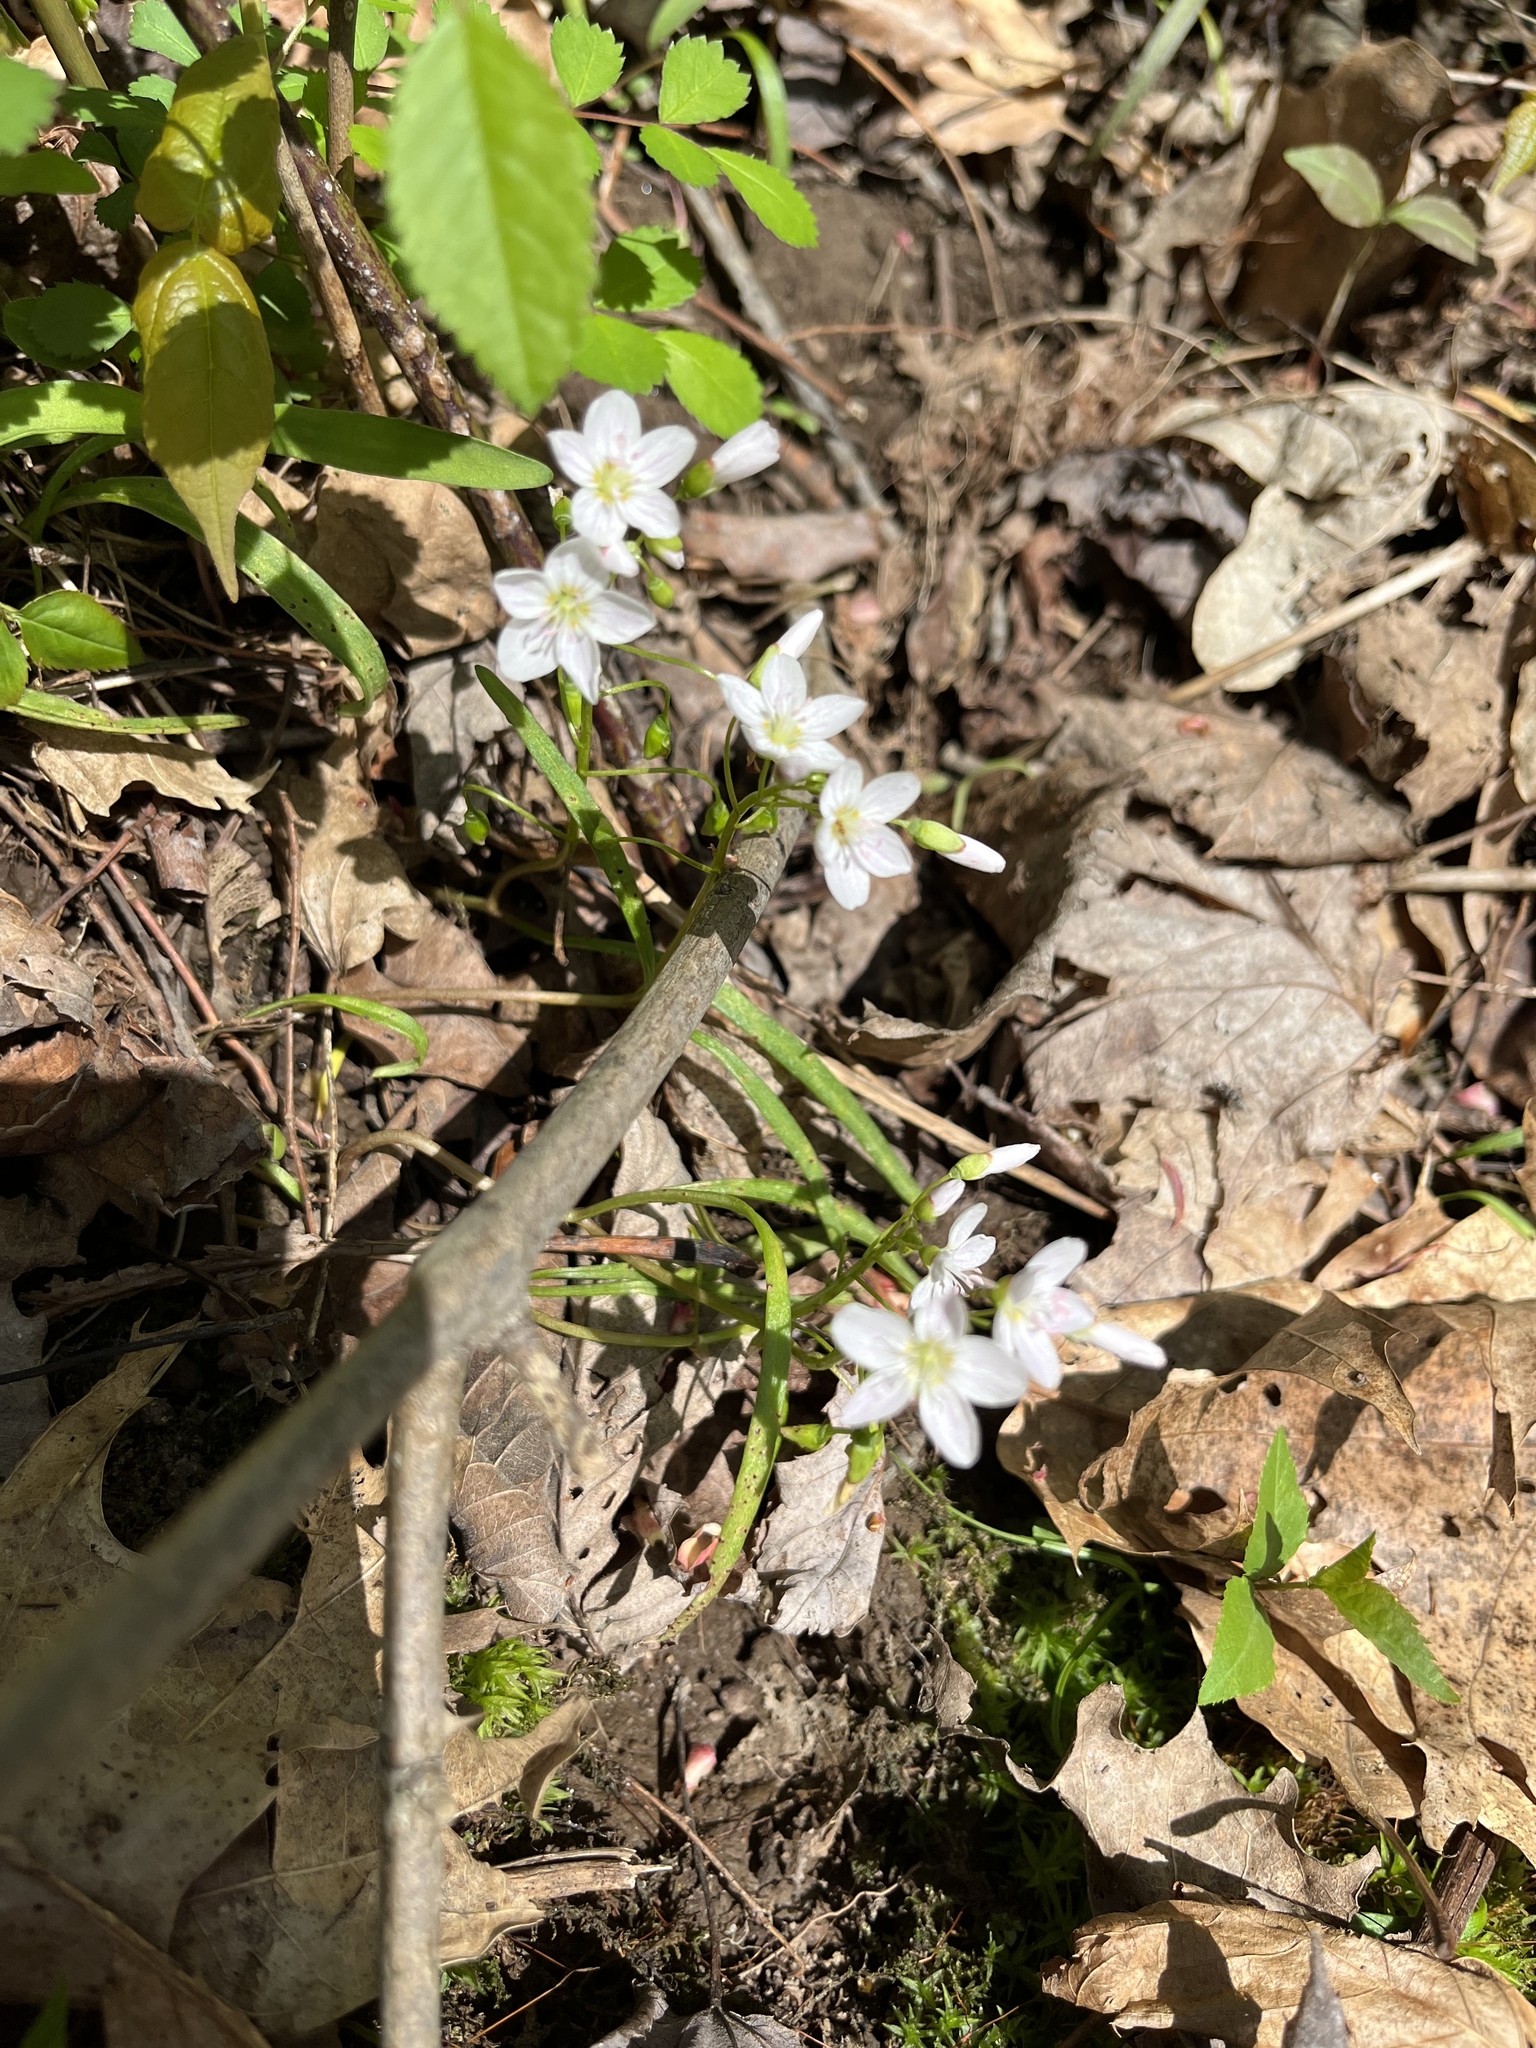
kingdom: Plantae
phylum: Tracheophyta
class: Magnoliopsida
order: Caryophyllales
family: Montiaceae
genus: Claytonia
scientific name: Claytonia virginica
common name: Virginia springbeauty
